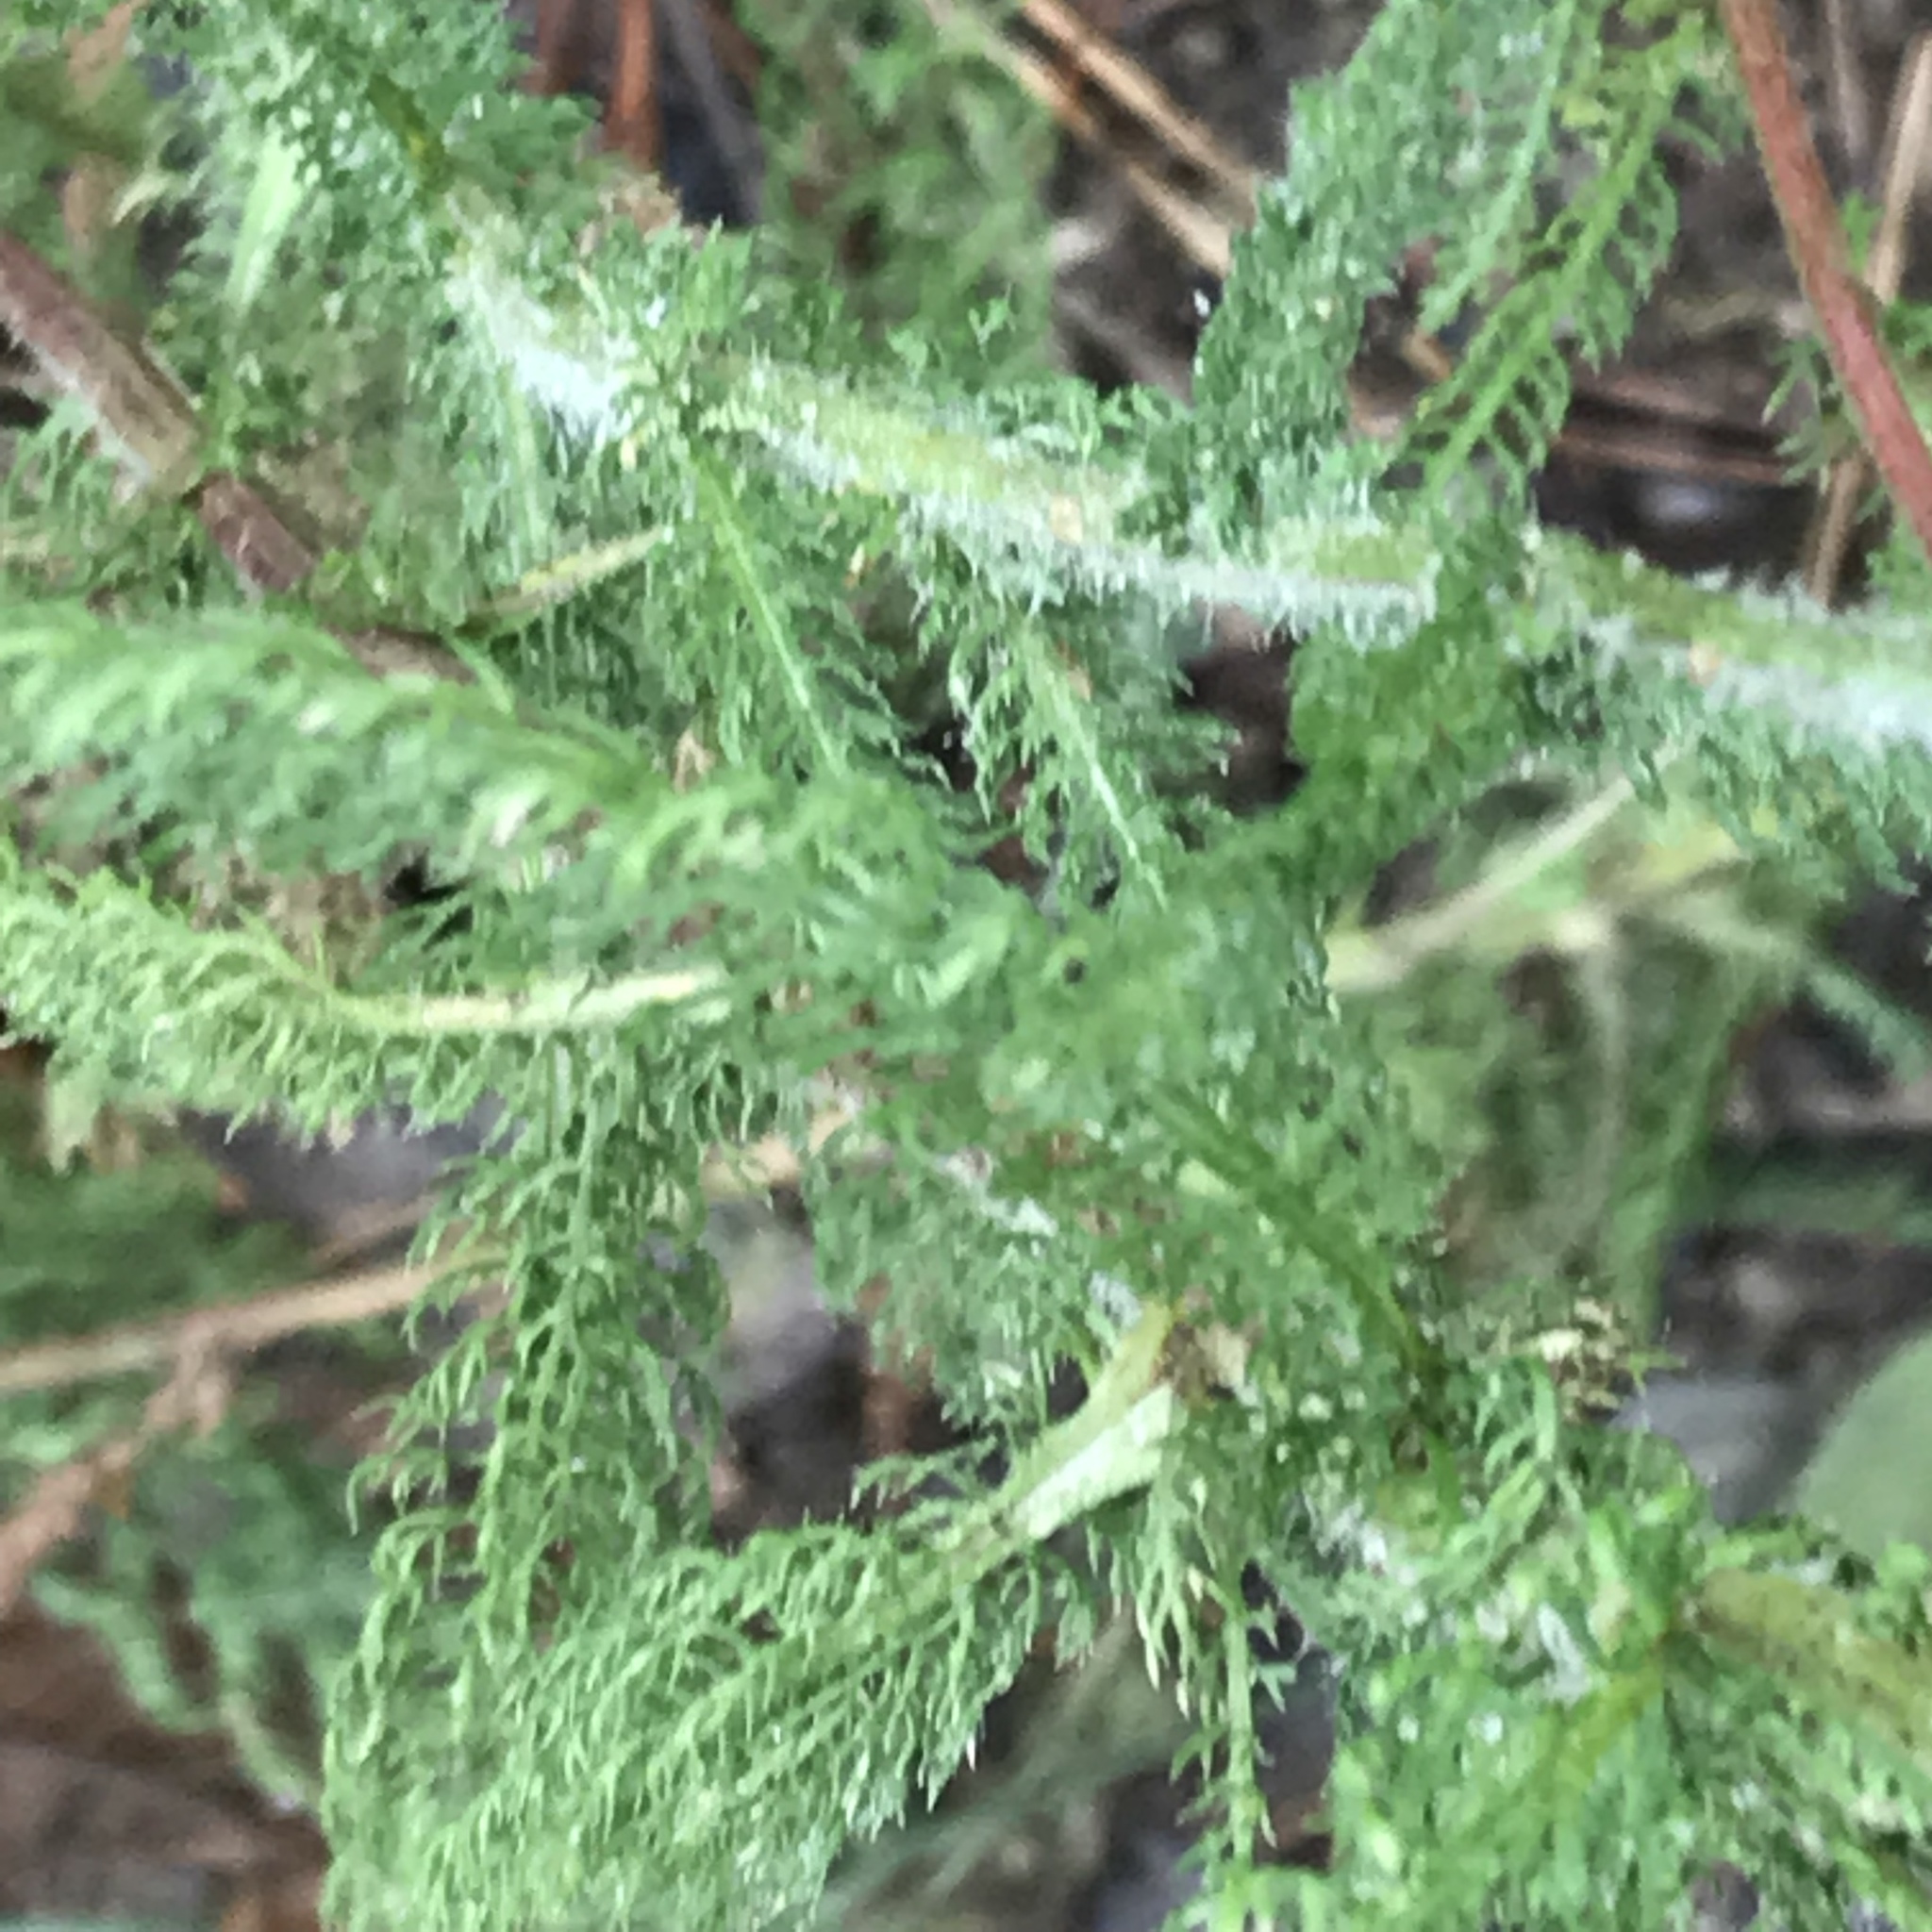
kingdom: Plantae
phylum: Tracheophyta
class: Magnoliopsida
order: Asterales
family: Asteraceae
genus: Achillea
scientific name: Achillea millefolium
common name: Yarrow
